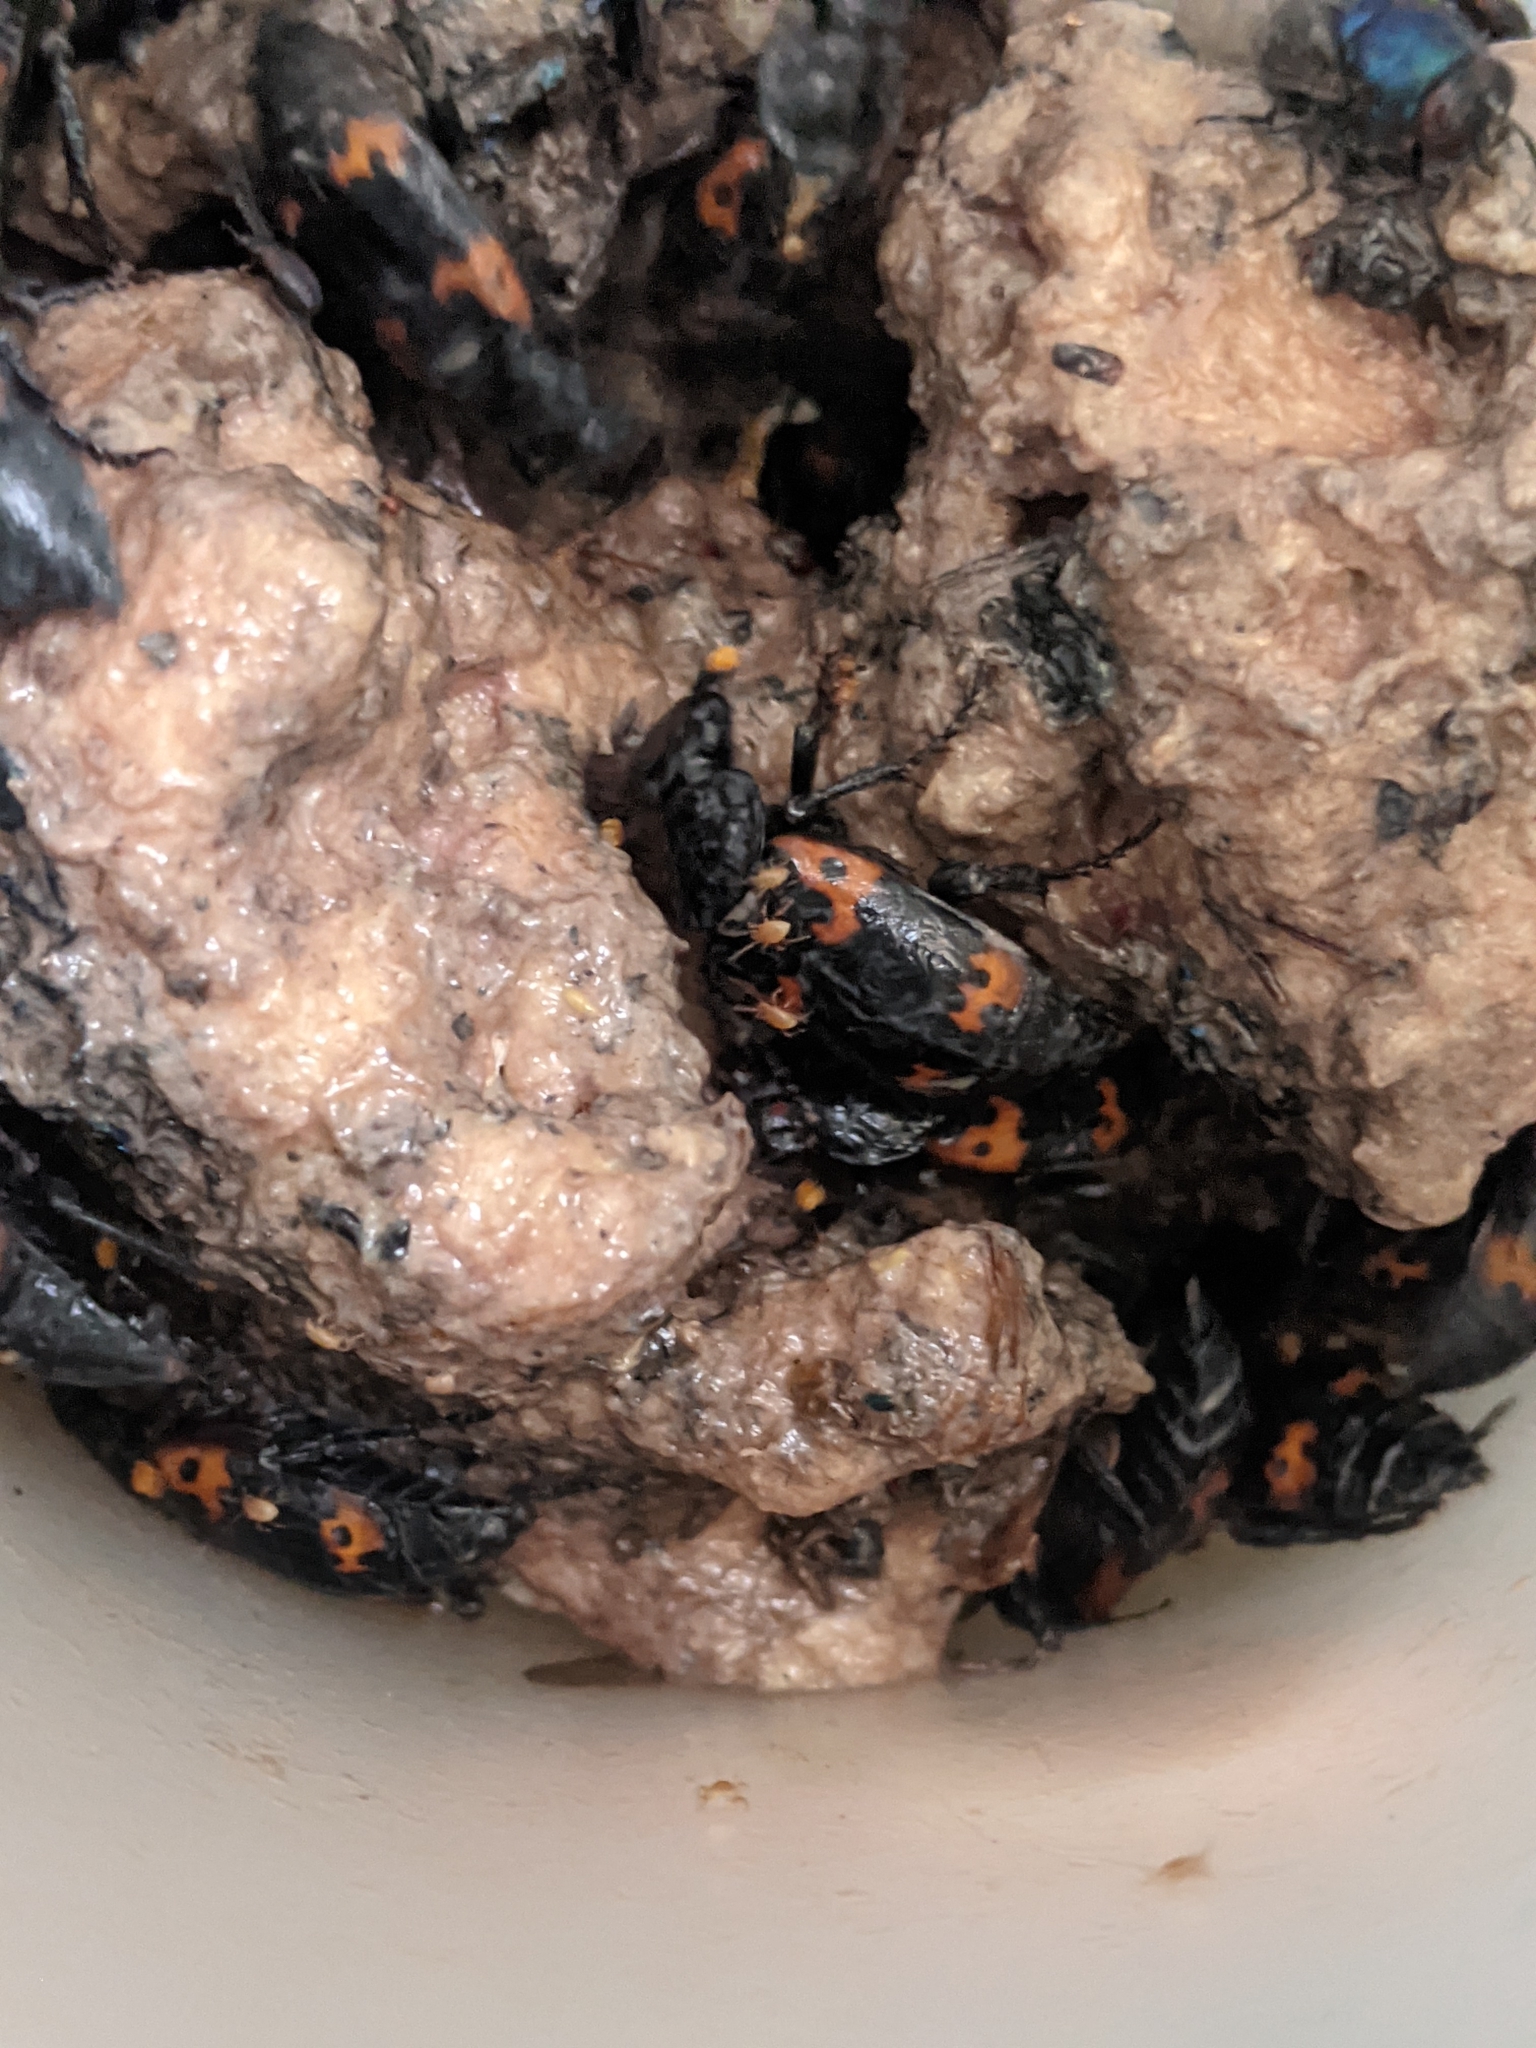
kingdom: Animalia
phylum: Arthropoda
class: Insecta
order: Coleoptera
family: Staphylinidae
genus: Nicrophorus
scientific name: Nicrophorus nepalensis
